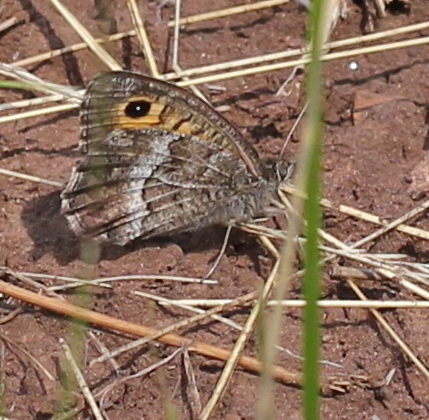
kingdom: Animalia
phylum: Arthropoda
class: Insecta
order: Lepidoptera
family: Nymphalidae
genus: Arethusana
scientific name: Arethusana arethusa
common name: False grayling
